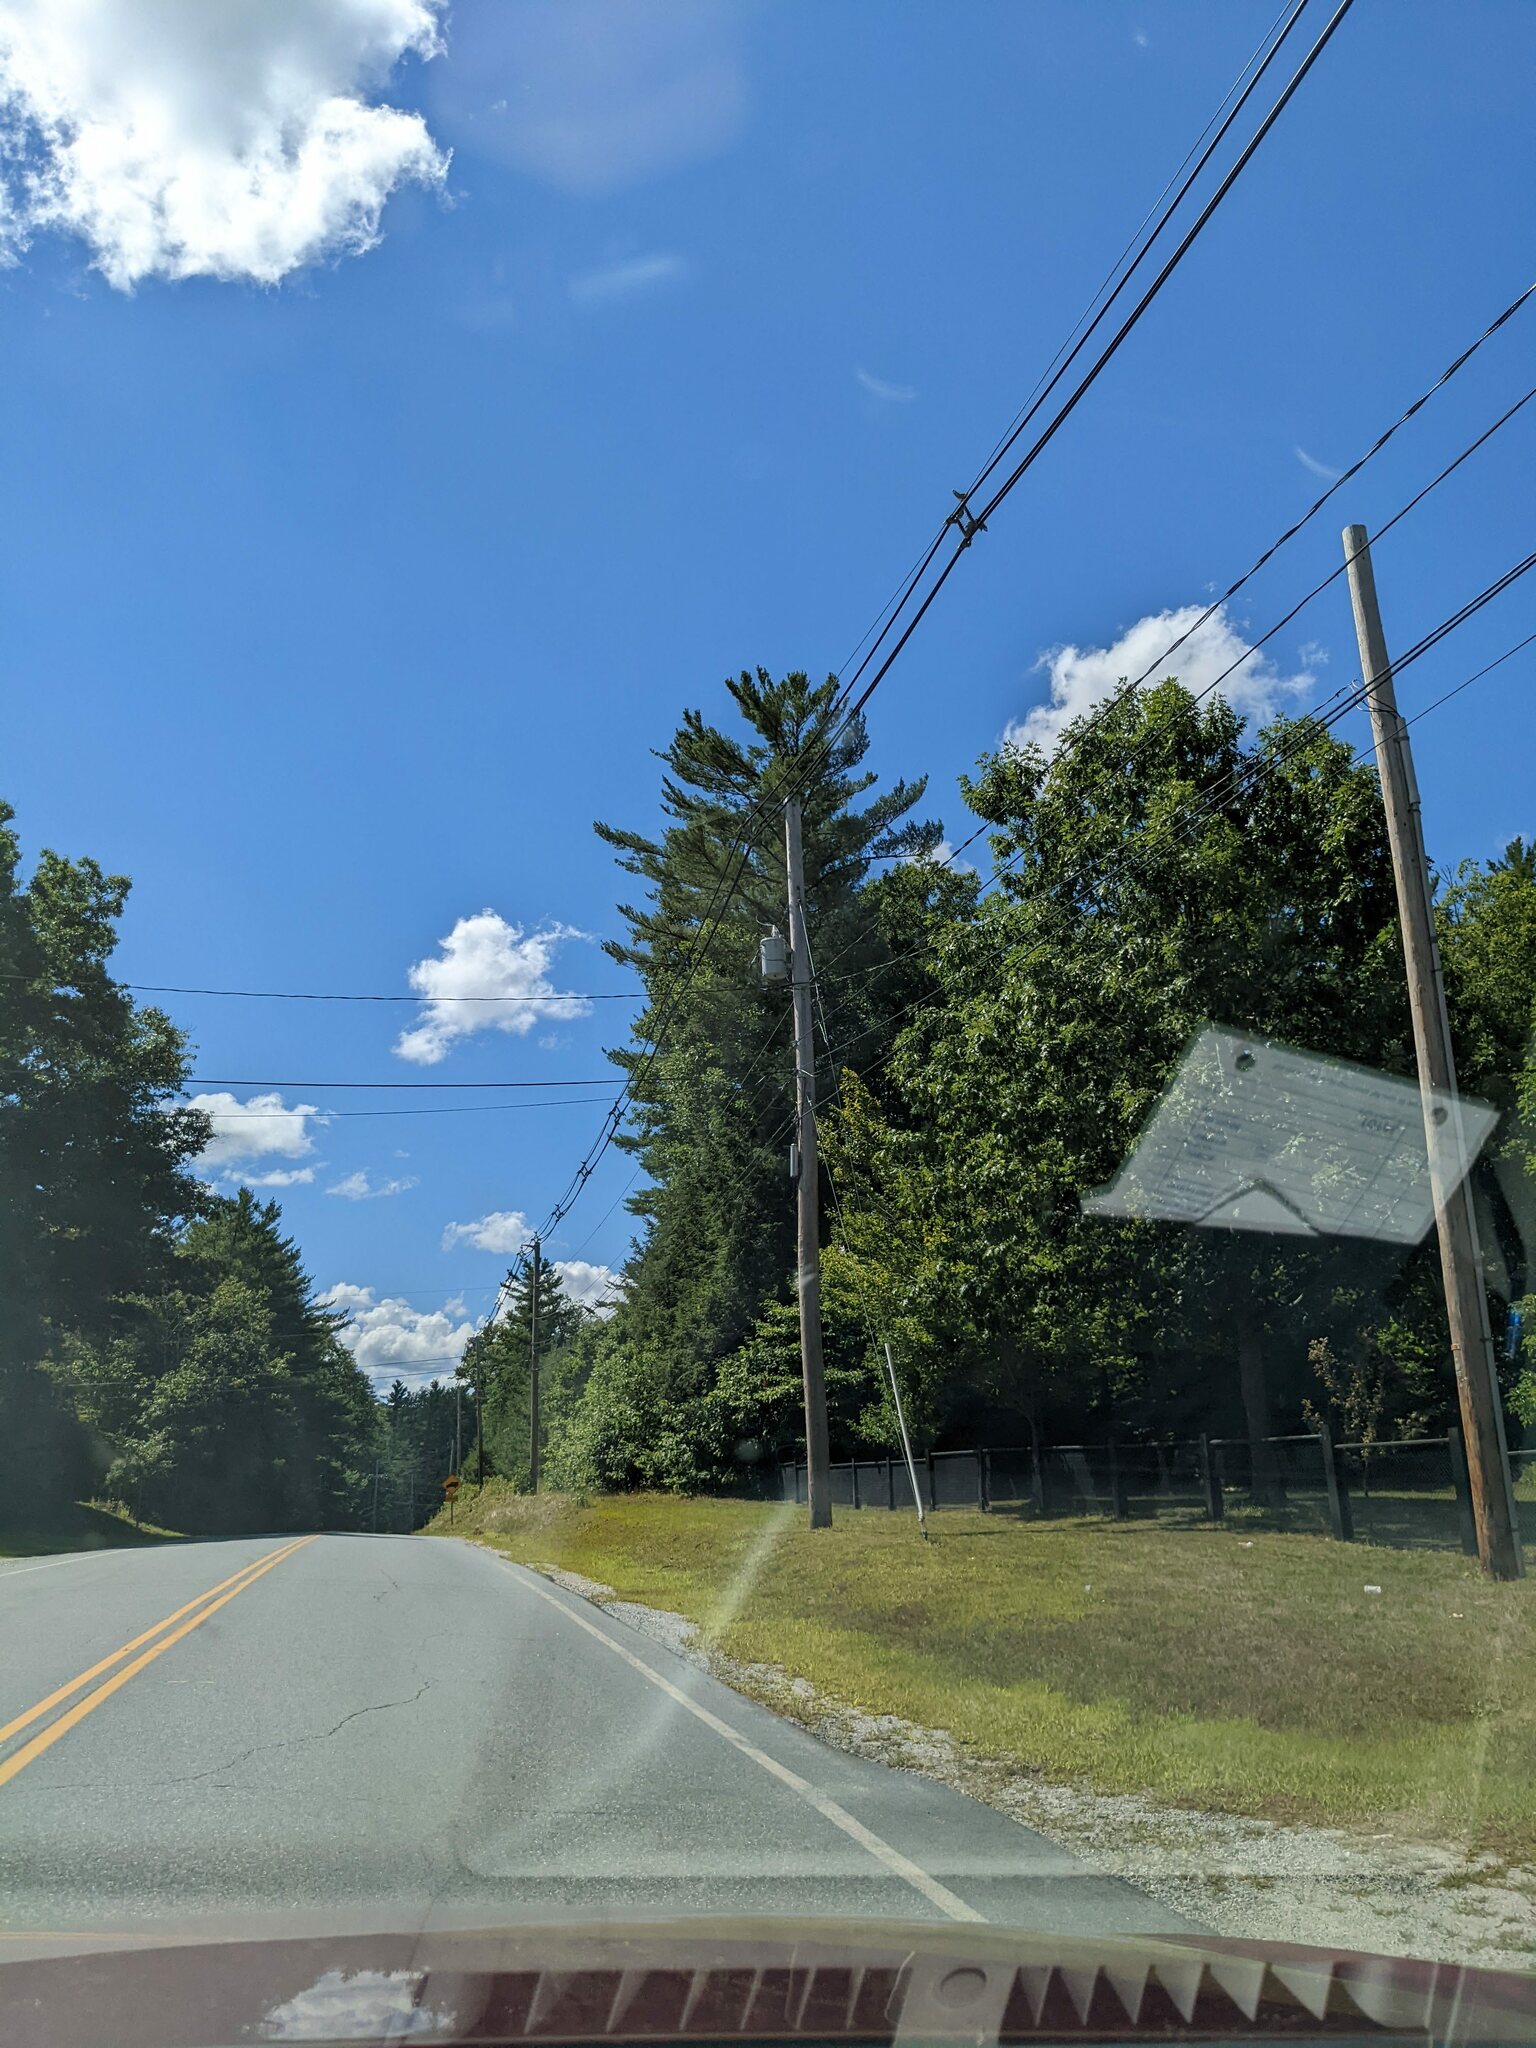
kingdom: Plantae
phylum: Tracheophyta
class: Pinopsida
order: Pinales
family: Pinaceae
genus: Pinus
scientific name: Pinus strobus
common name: Weymouth pine
